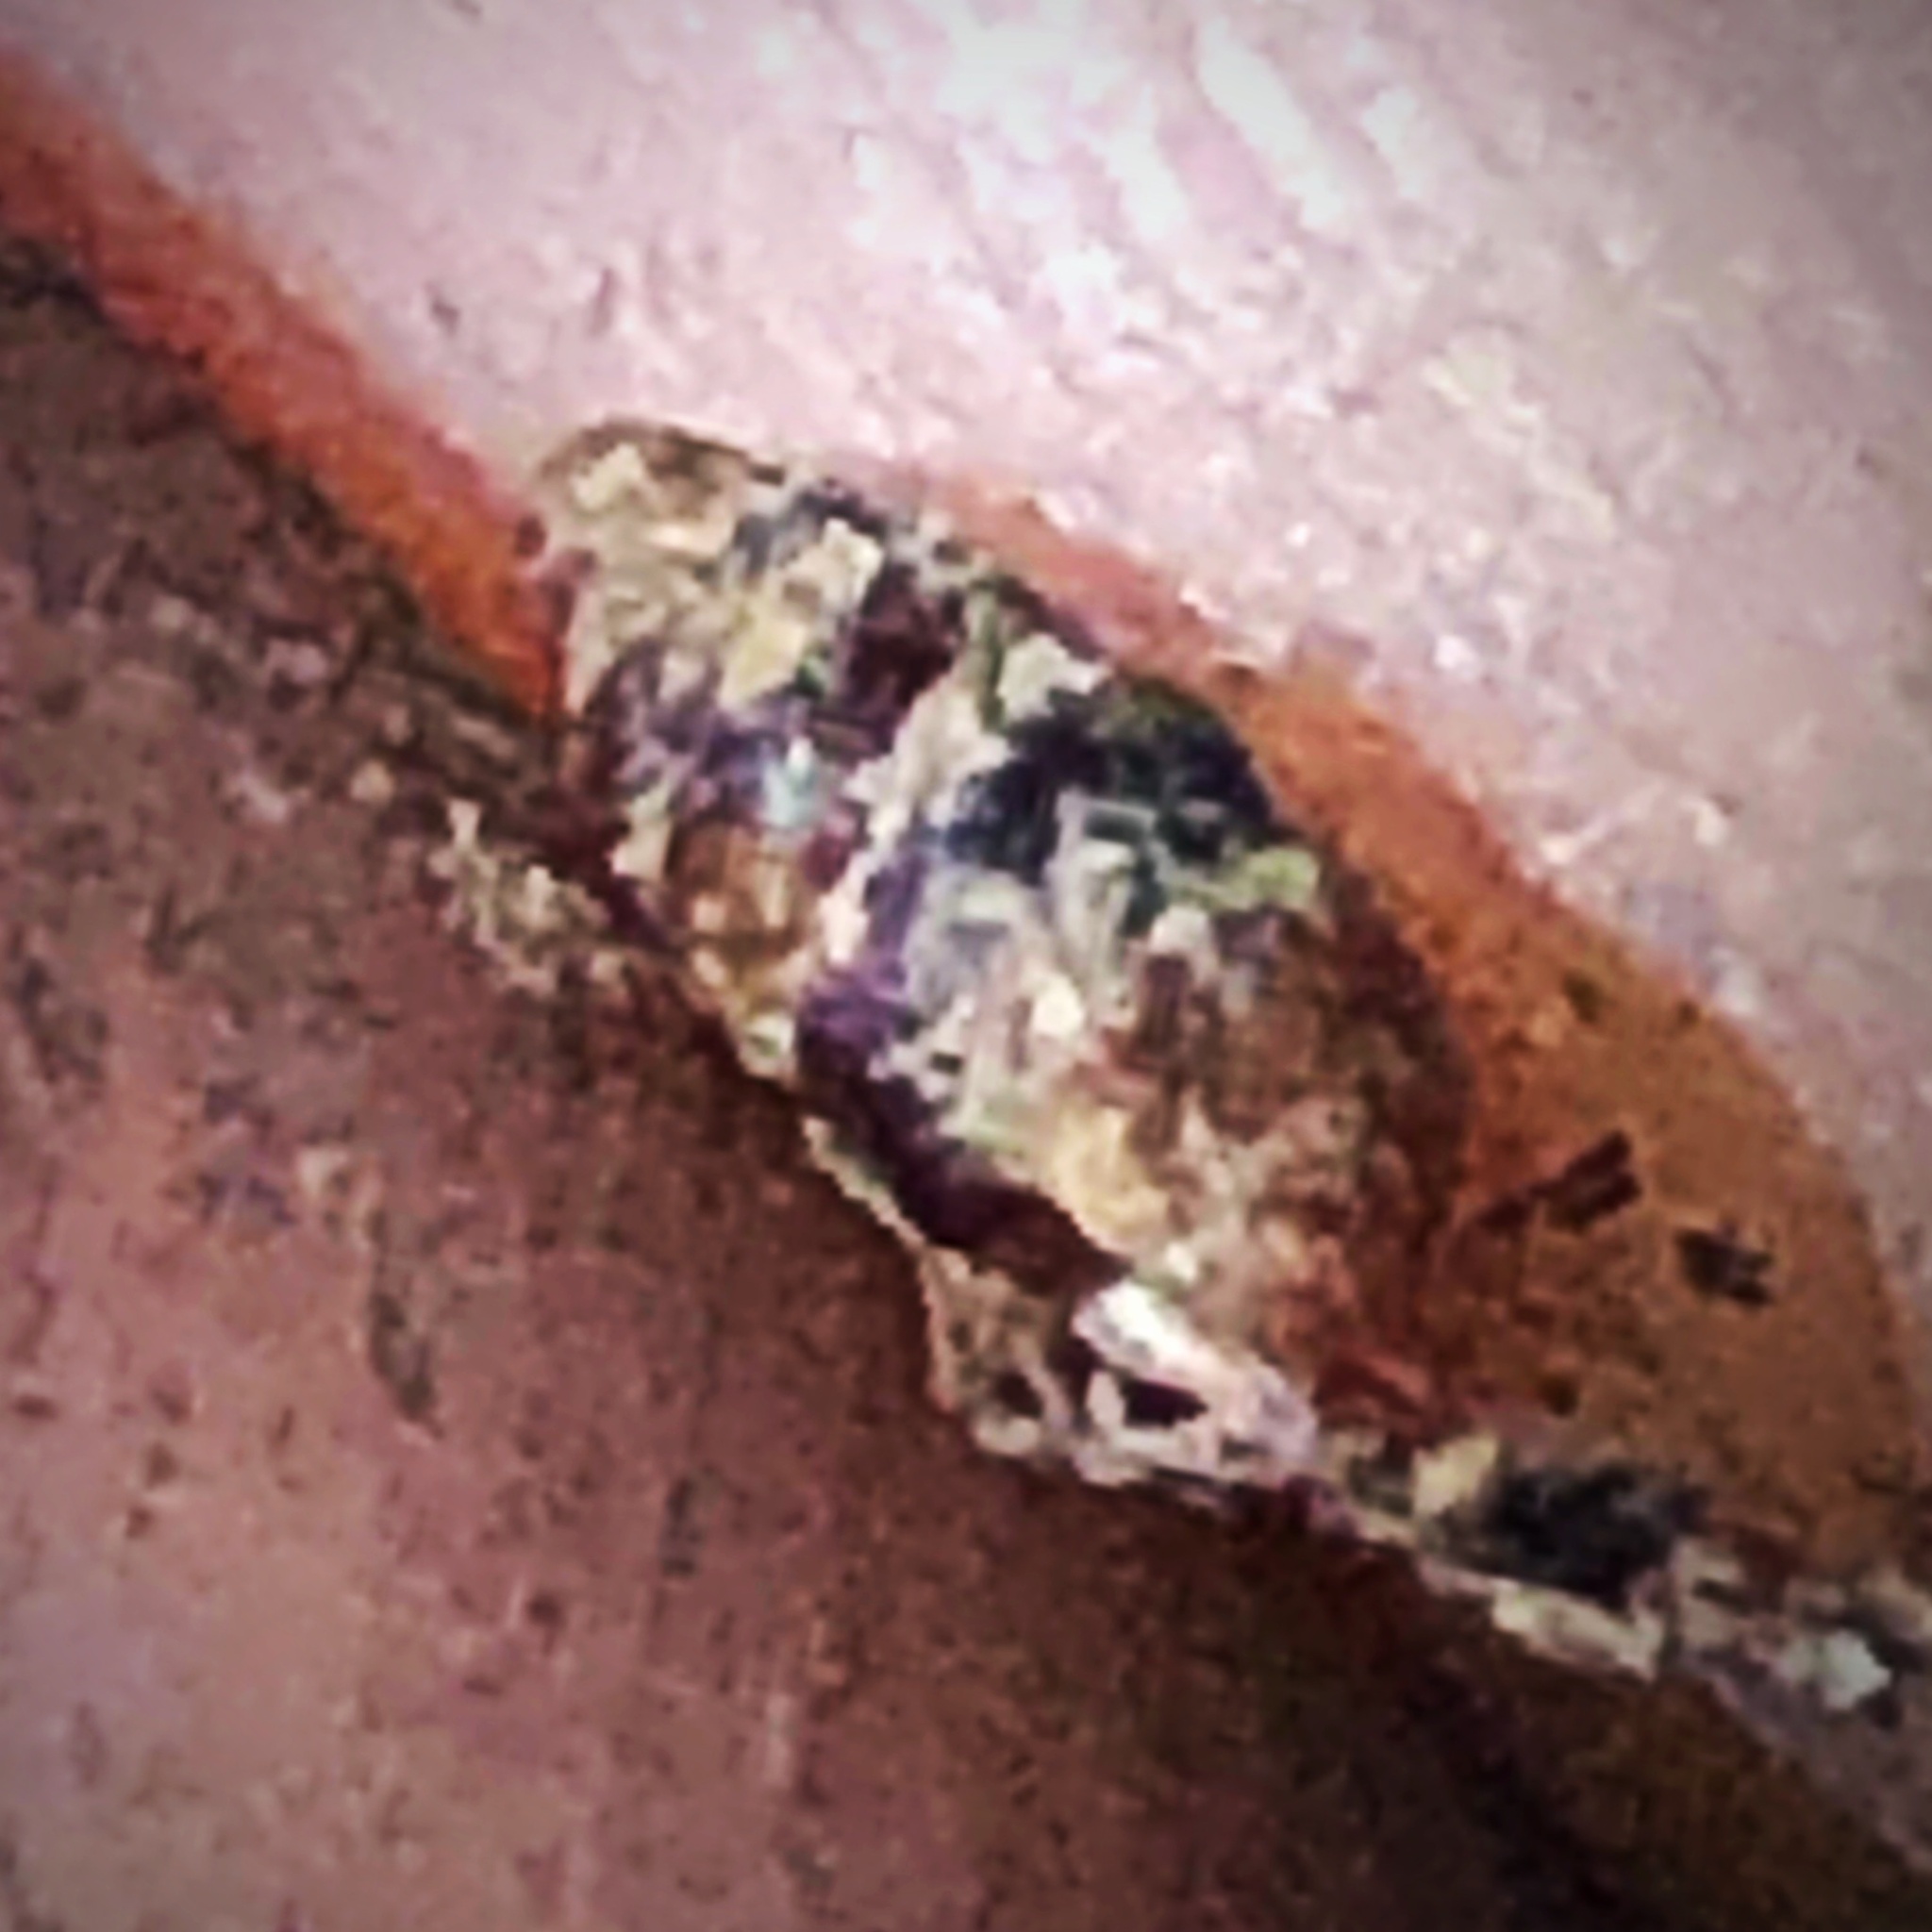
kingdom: Animalia
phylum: Mollusca
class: Gastropoda
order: Stylommatophora
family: Pupillidae
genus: Pupoides
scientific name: Pupoides nitidulus
